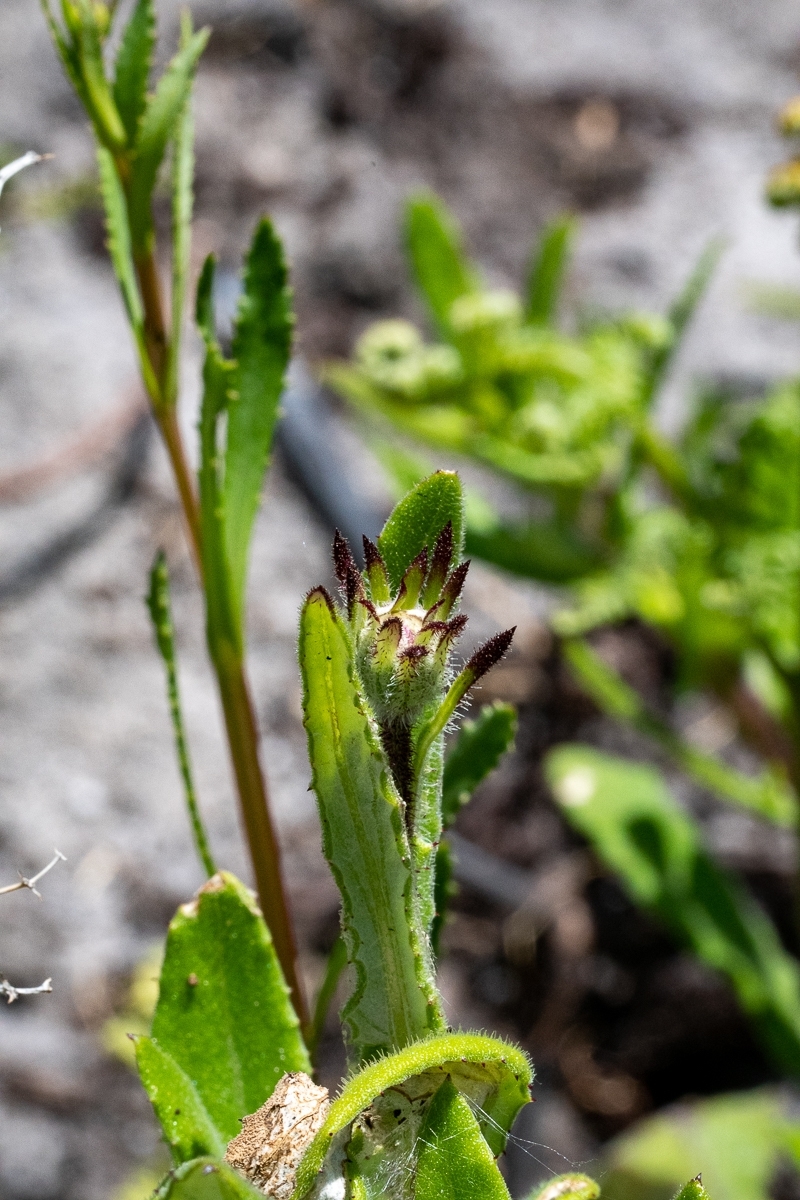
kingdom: Plantae
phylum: Tracheophyta
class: Magnoliopsida
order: Asterales
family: Asteraceae
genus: Arctotis
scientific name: Arctotis scabra
